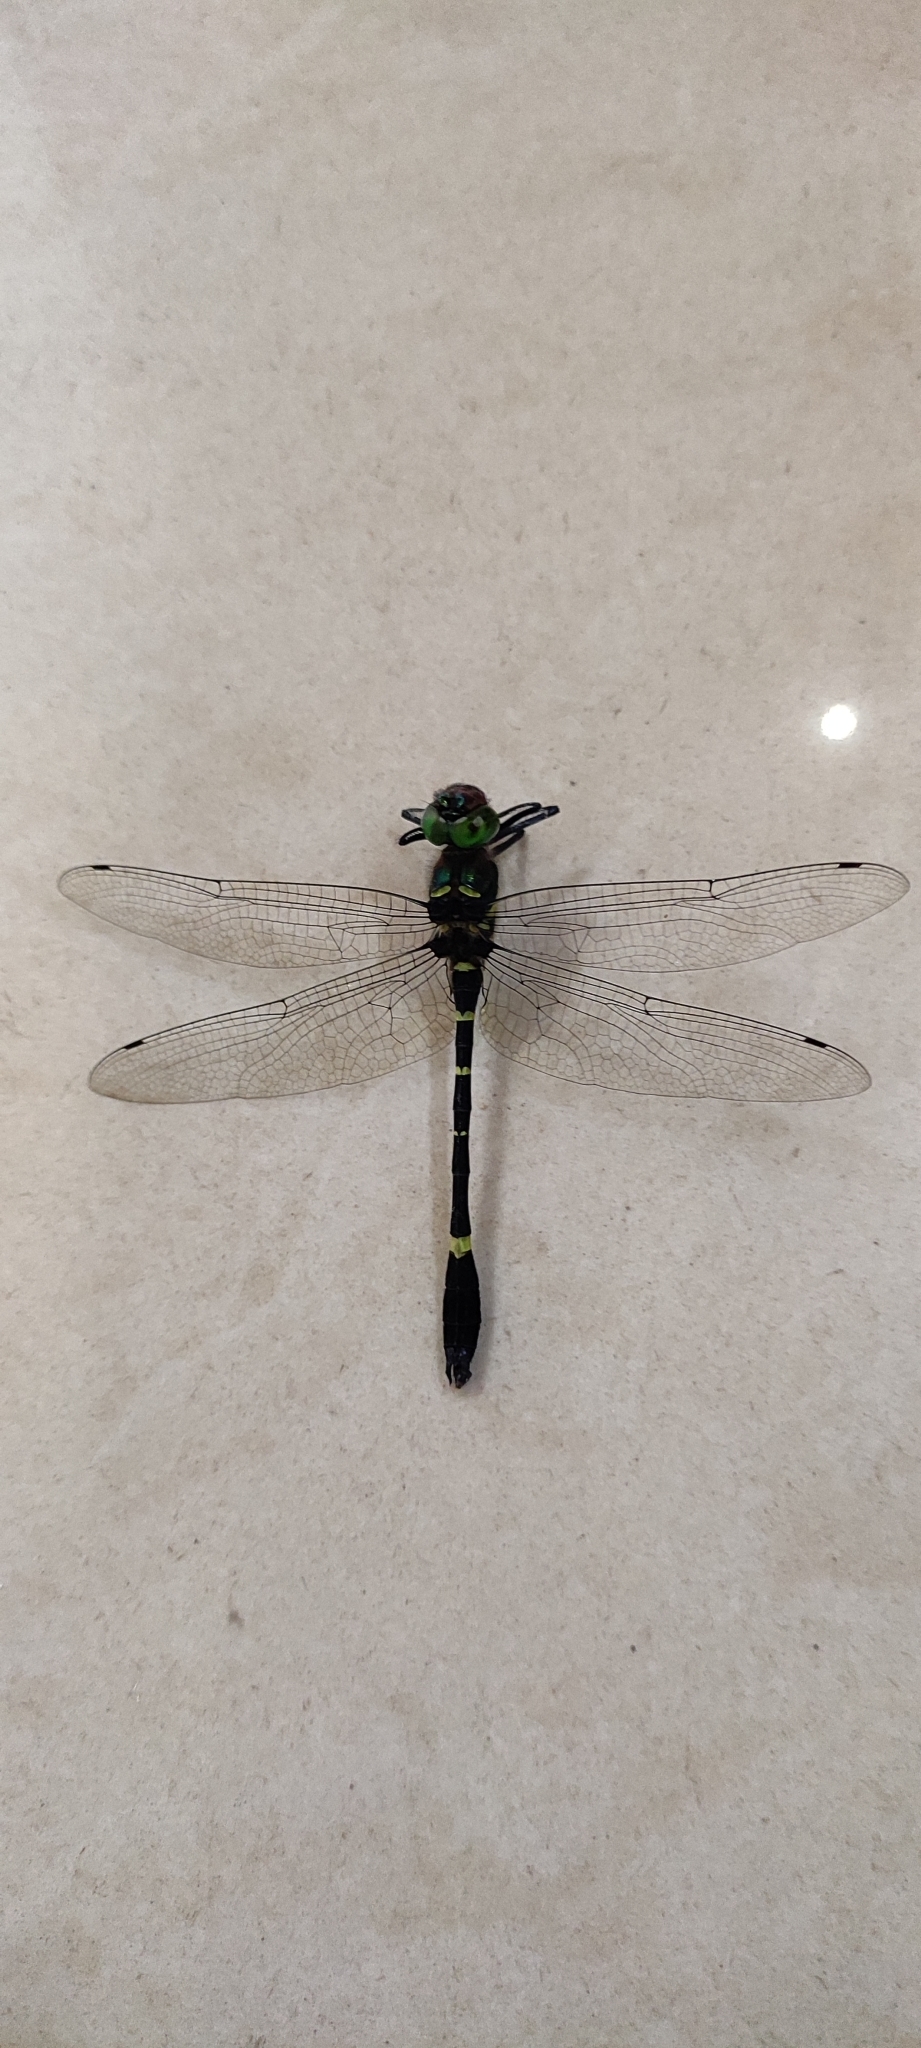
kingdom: Animalia
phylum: Arthropoda
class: Insecta
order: Odonata
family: Macromiidae
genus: Macromia
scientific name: Macromia moorei
